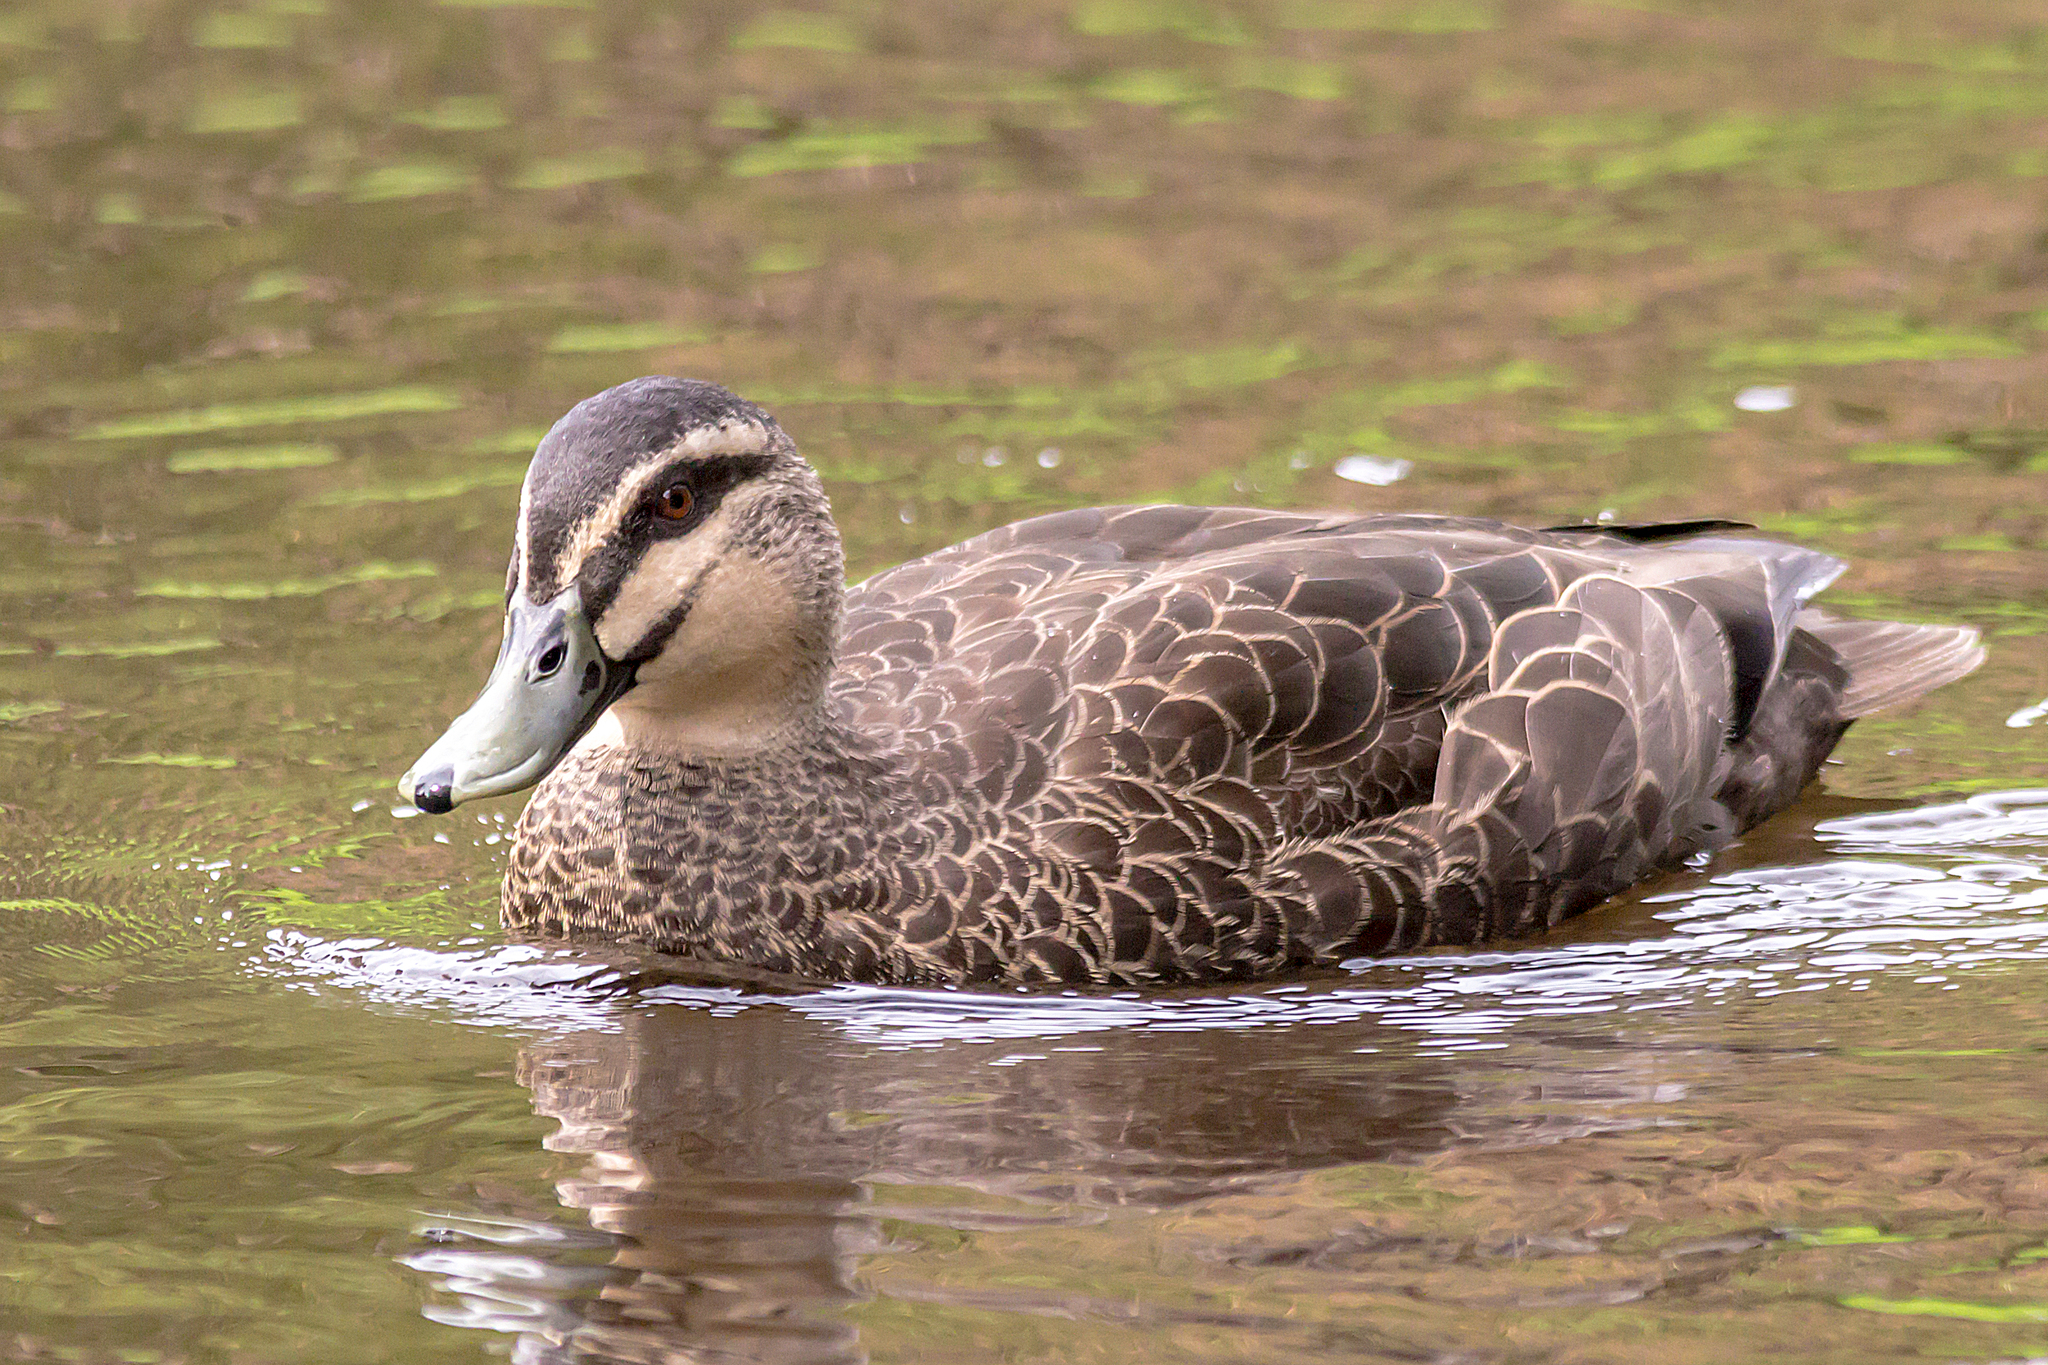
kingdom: Animalia
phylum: Chordata
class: Aves
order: Anseriformes
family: Anatidae
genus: Anas
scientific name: Anas superciliosa
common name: Pacific black duck
